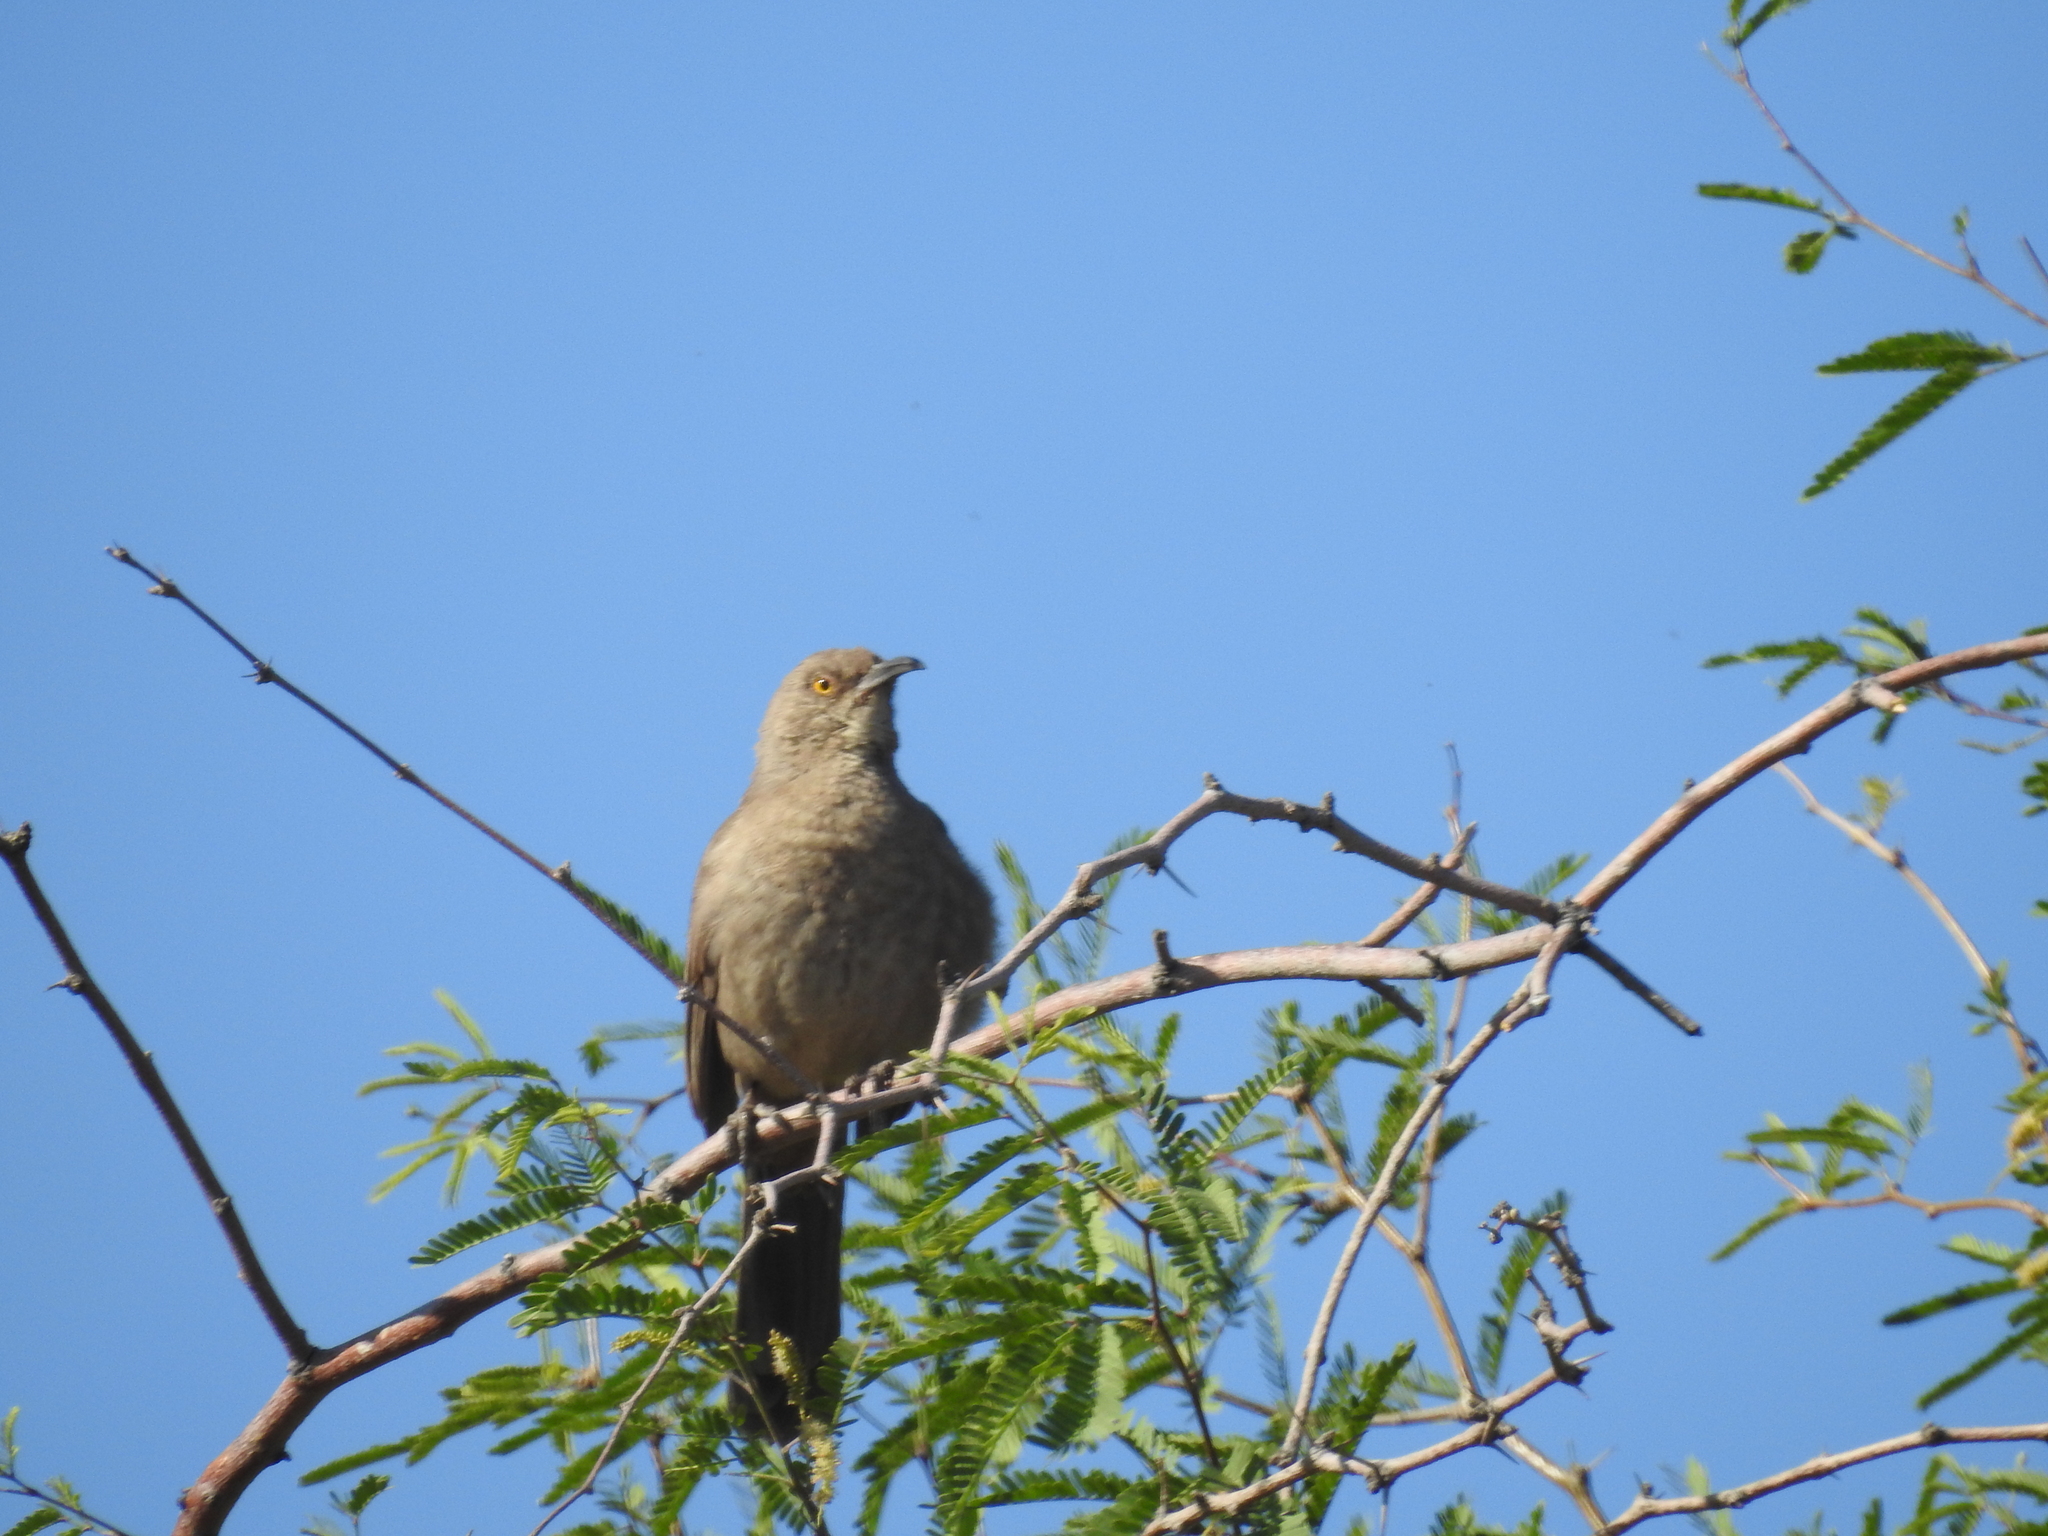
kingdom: Animalia
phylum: Chordata
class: Aves
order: Passeriformes
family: Mimidae
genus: Toxostoma
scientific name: Toxostoma curvirostre
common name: Curve-billed thrasher
